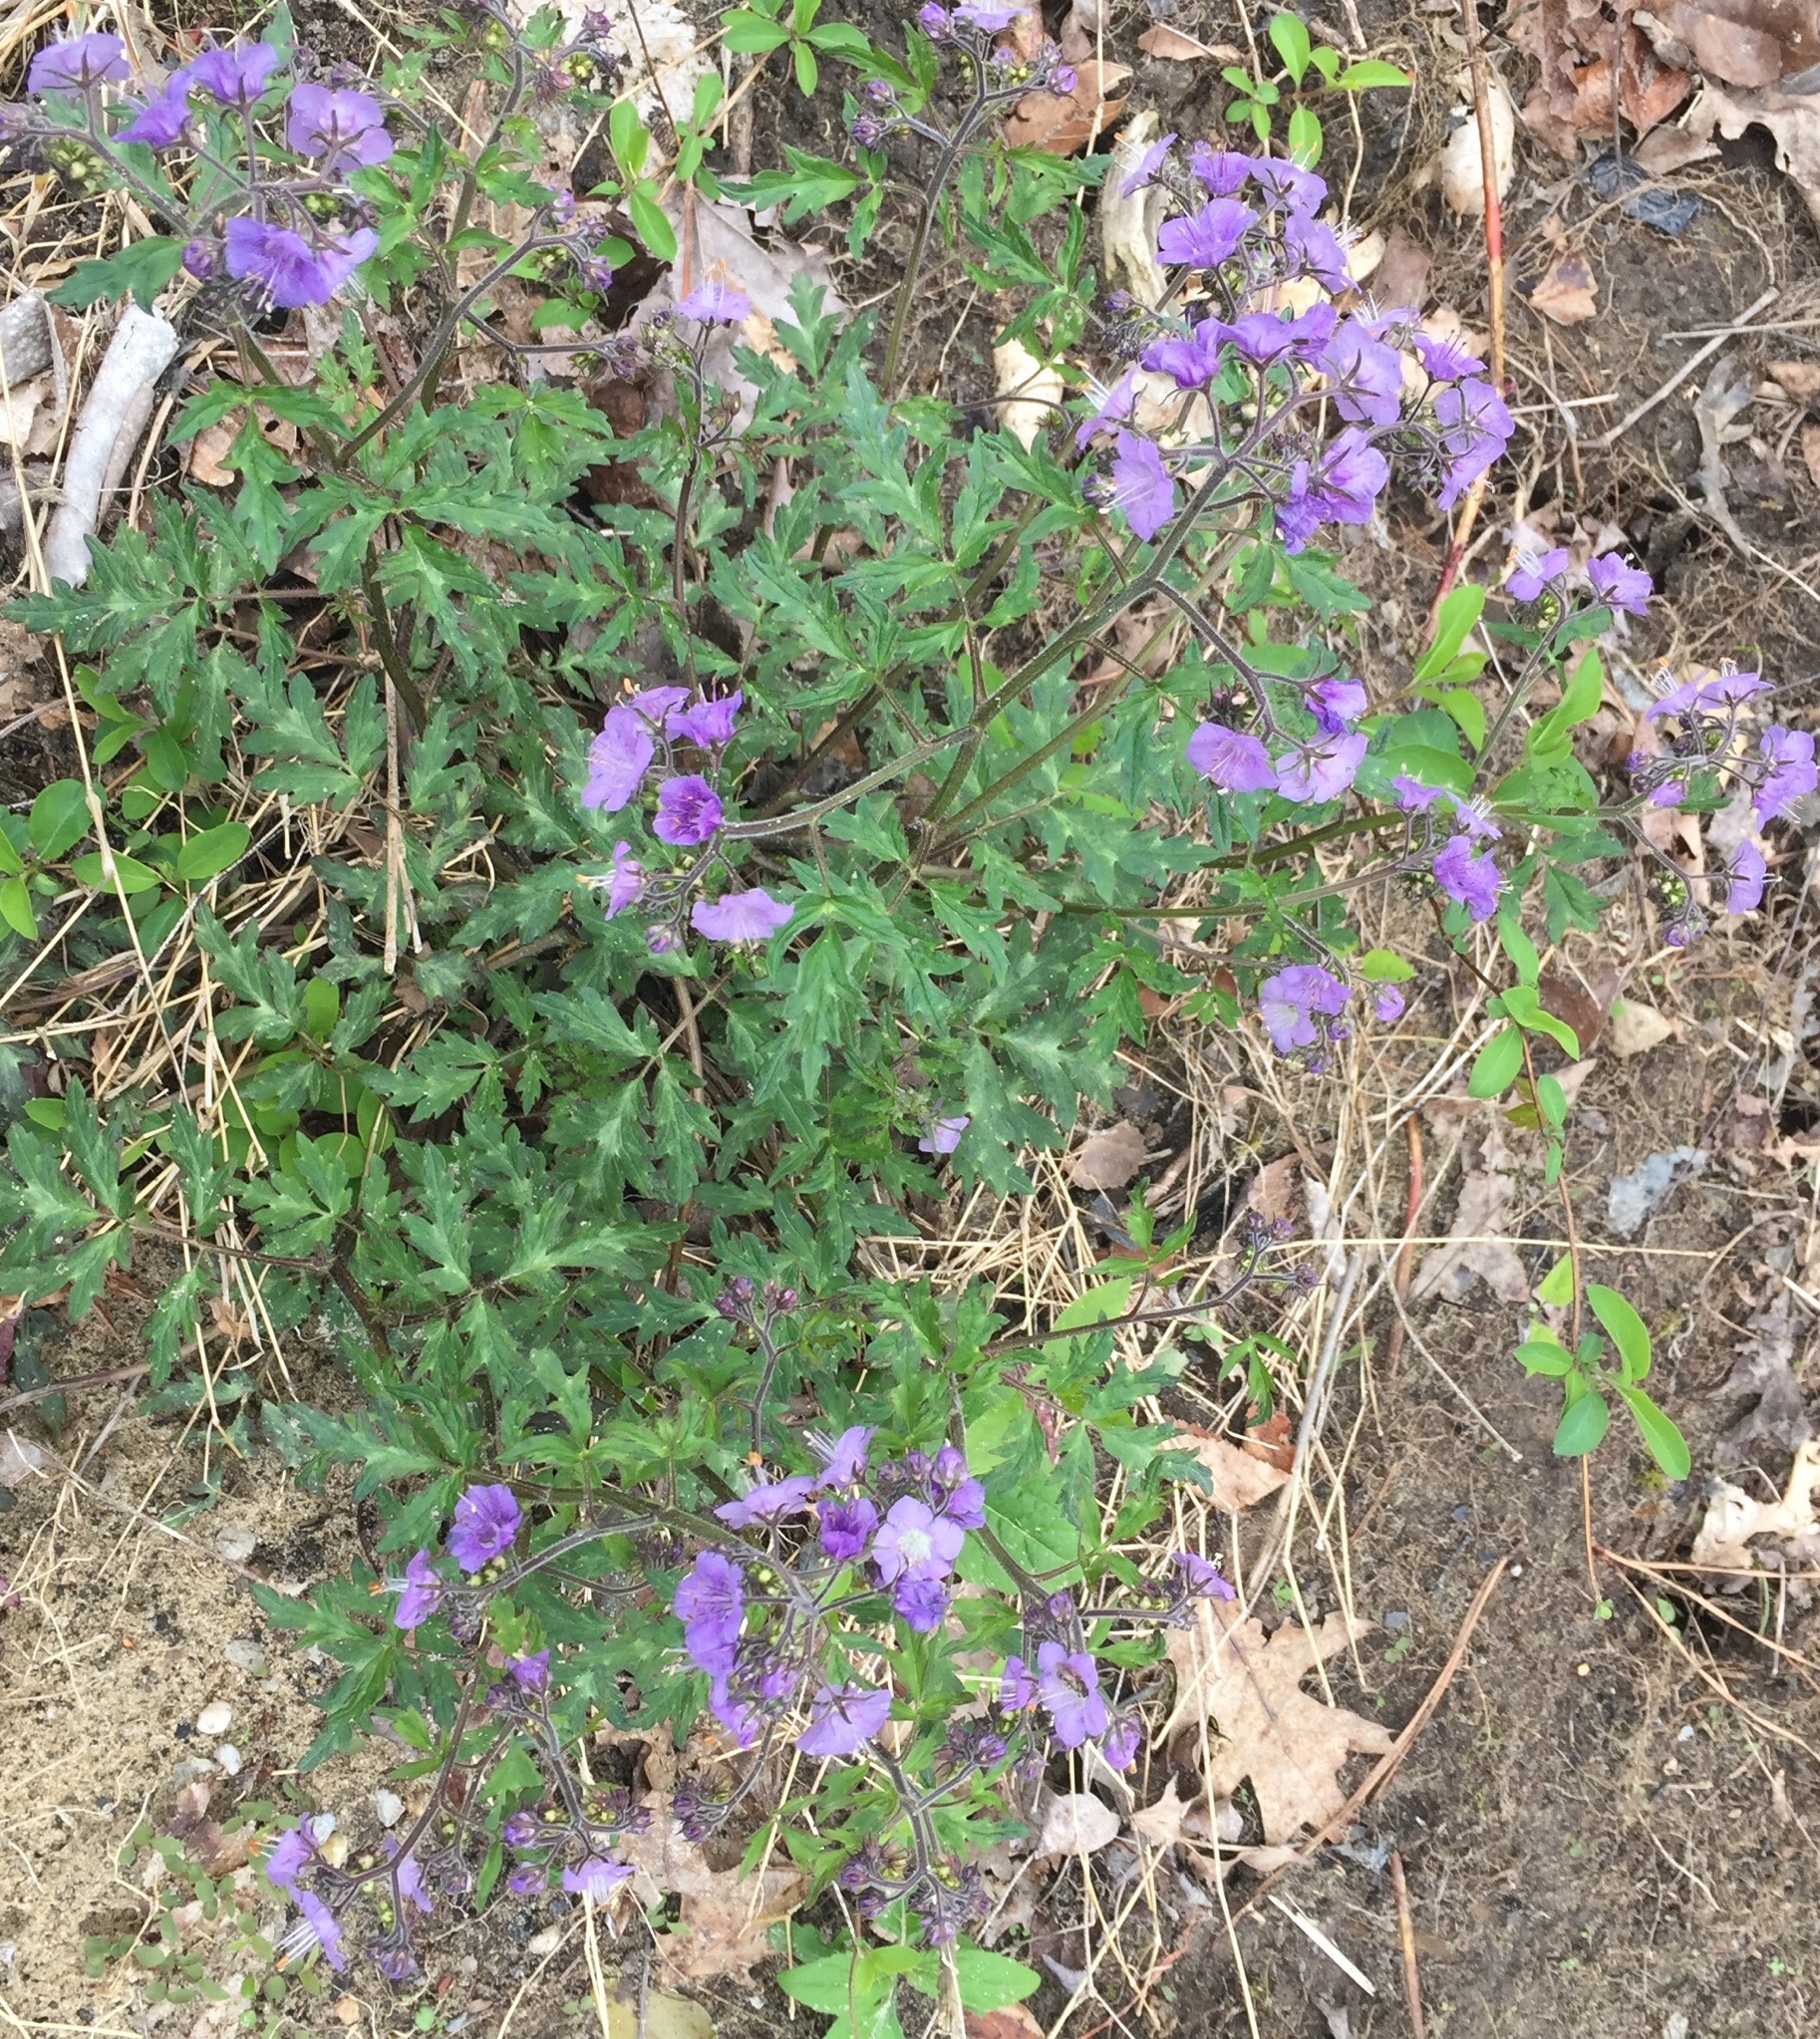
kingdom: Plantae
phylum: Tracheophyta
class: Magnoliopsida
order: Boraginales
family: Hydrophyllaceae
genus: Phacelia
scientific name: Phacelia bipinnatifida
